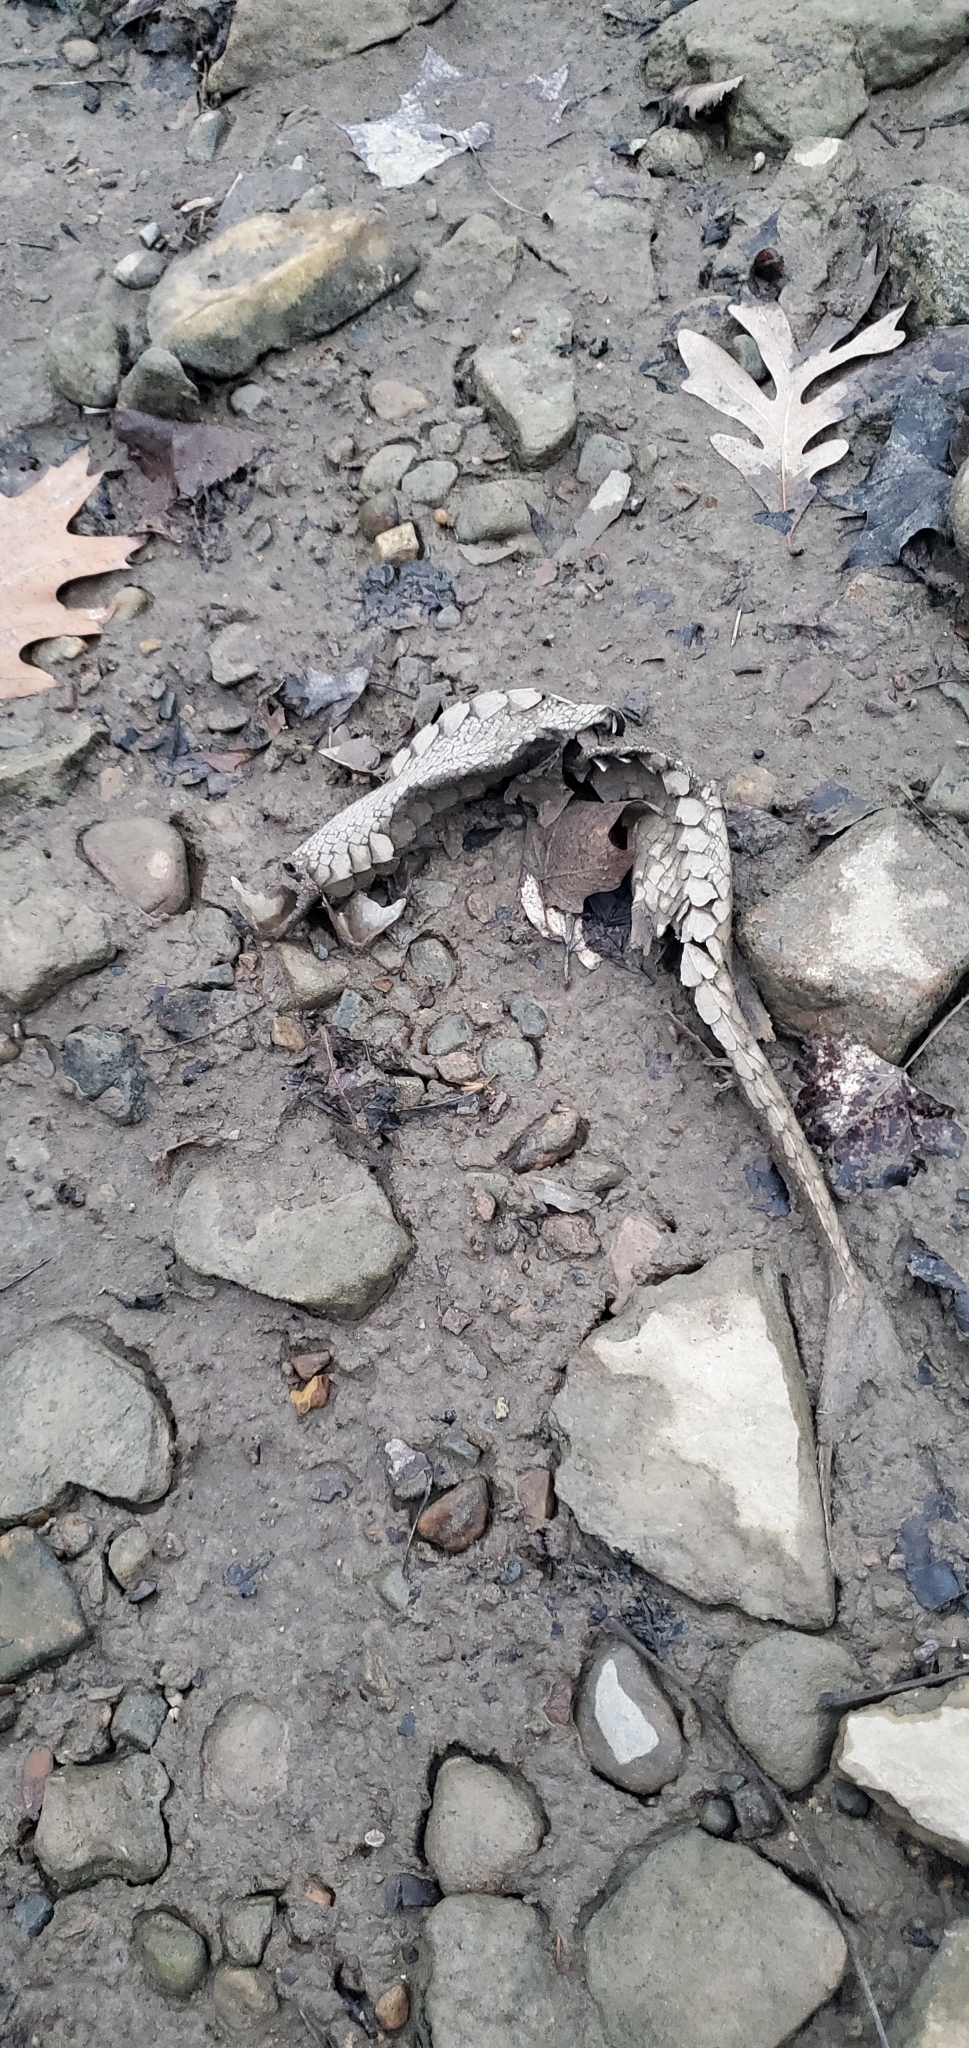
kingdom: Animalia
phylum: Chordata
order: Acipenseriformes
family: Acipenseridae
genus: Scaphirhynchus
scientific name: Scaphirhynchus platorynchus
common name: Shovelnose sturgeon
